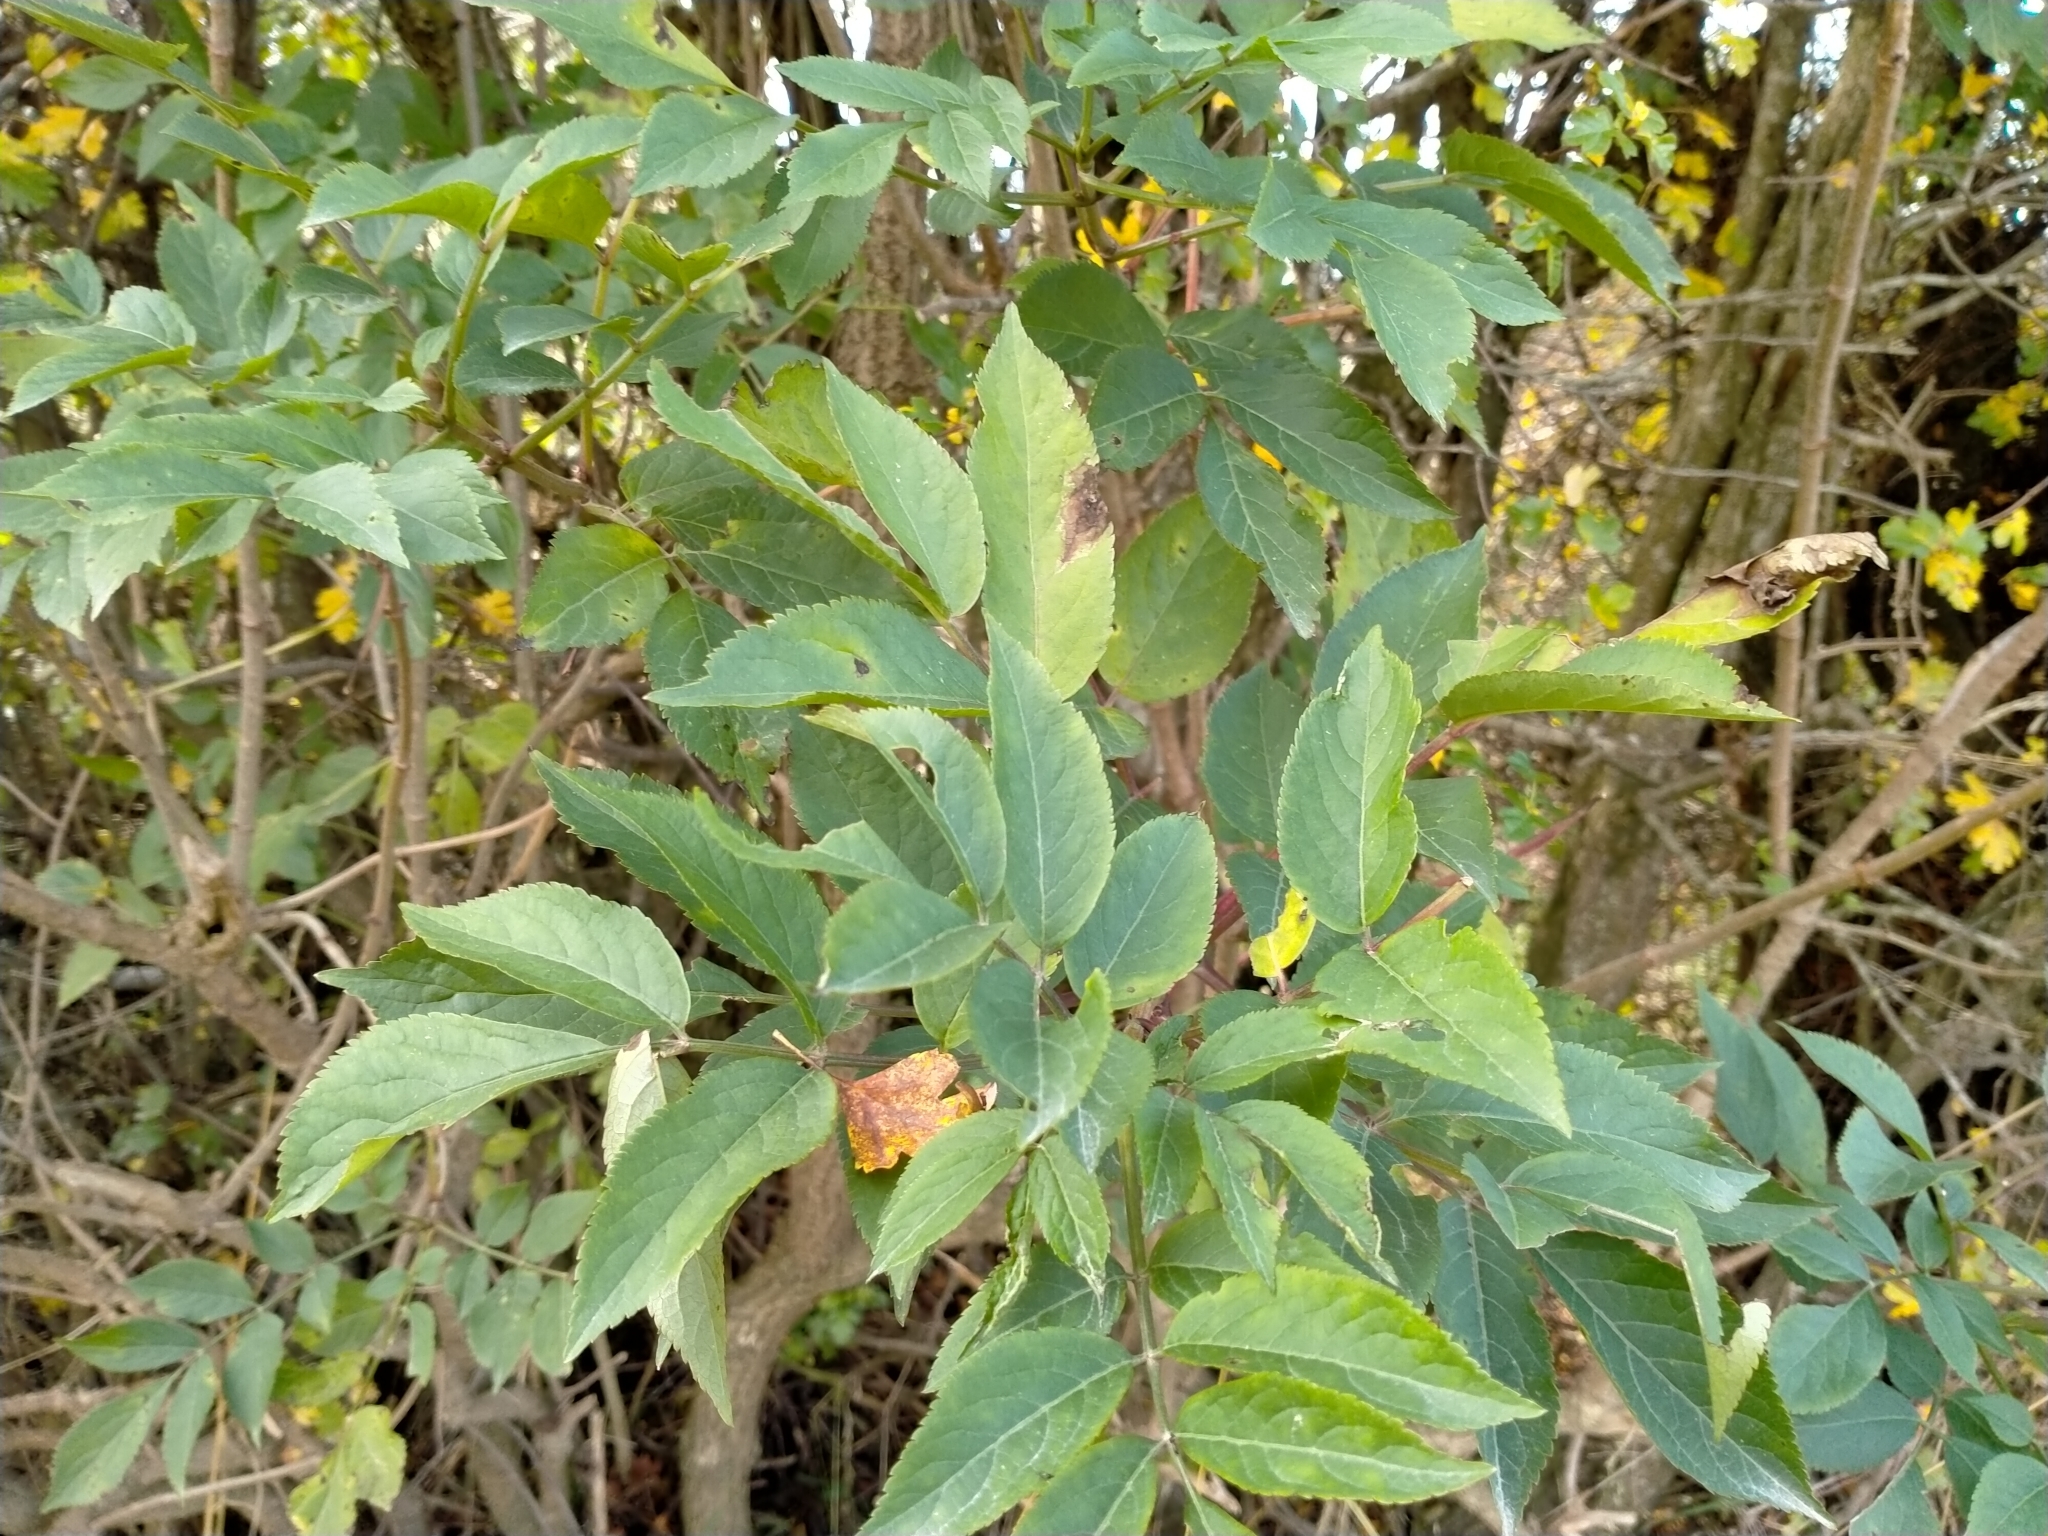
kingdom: Plantae
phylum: Tracheophyta
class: Magnoliopsida
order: Dipsacales
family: Viburnaceae
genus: Sambucus
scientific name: Sambucus nigra
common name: Elder
